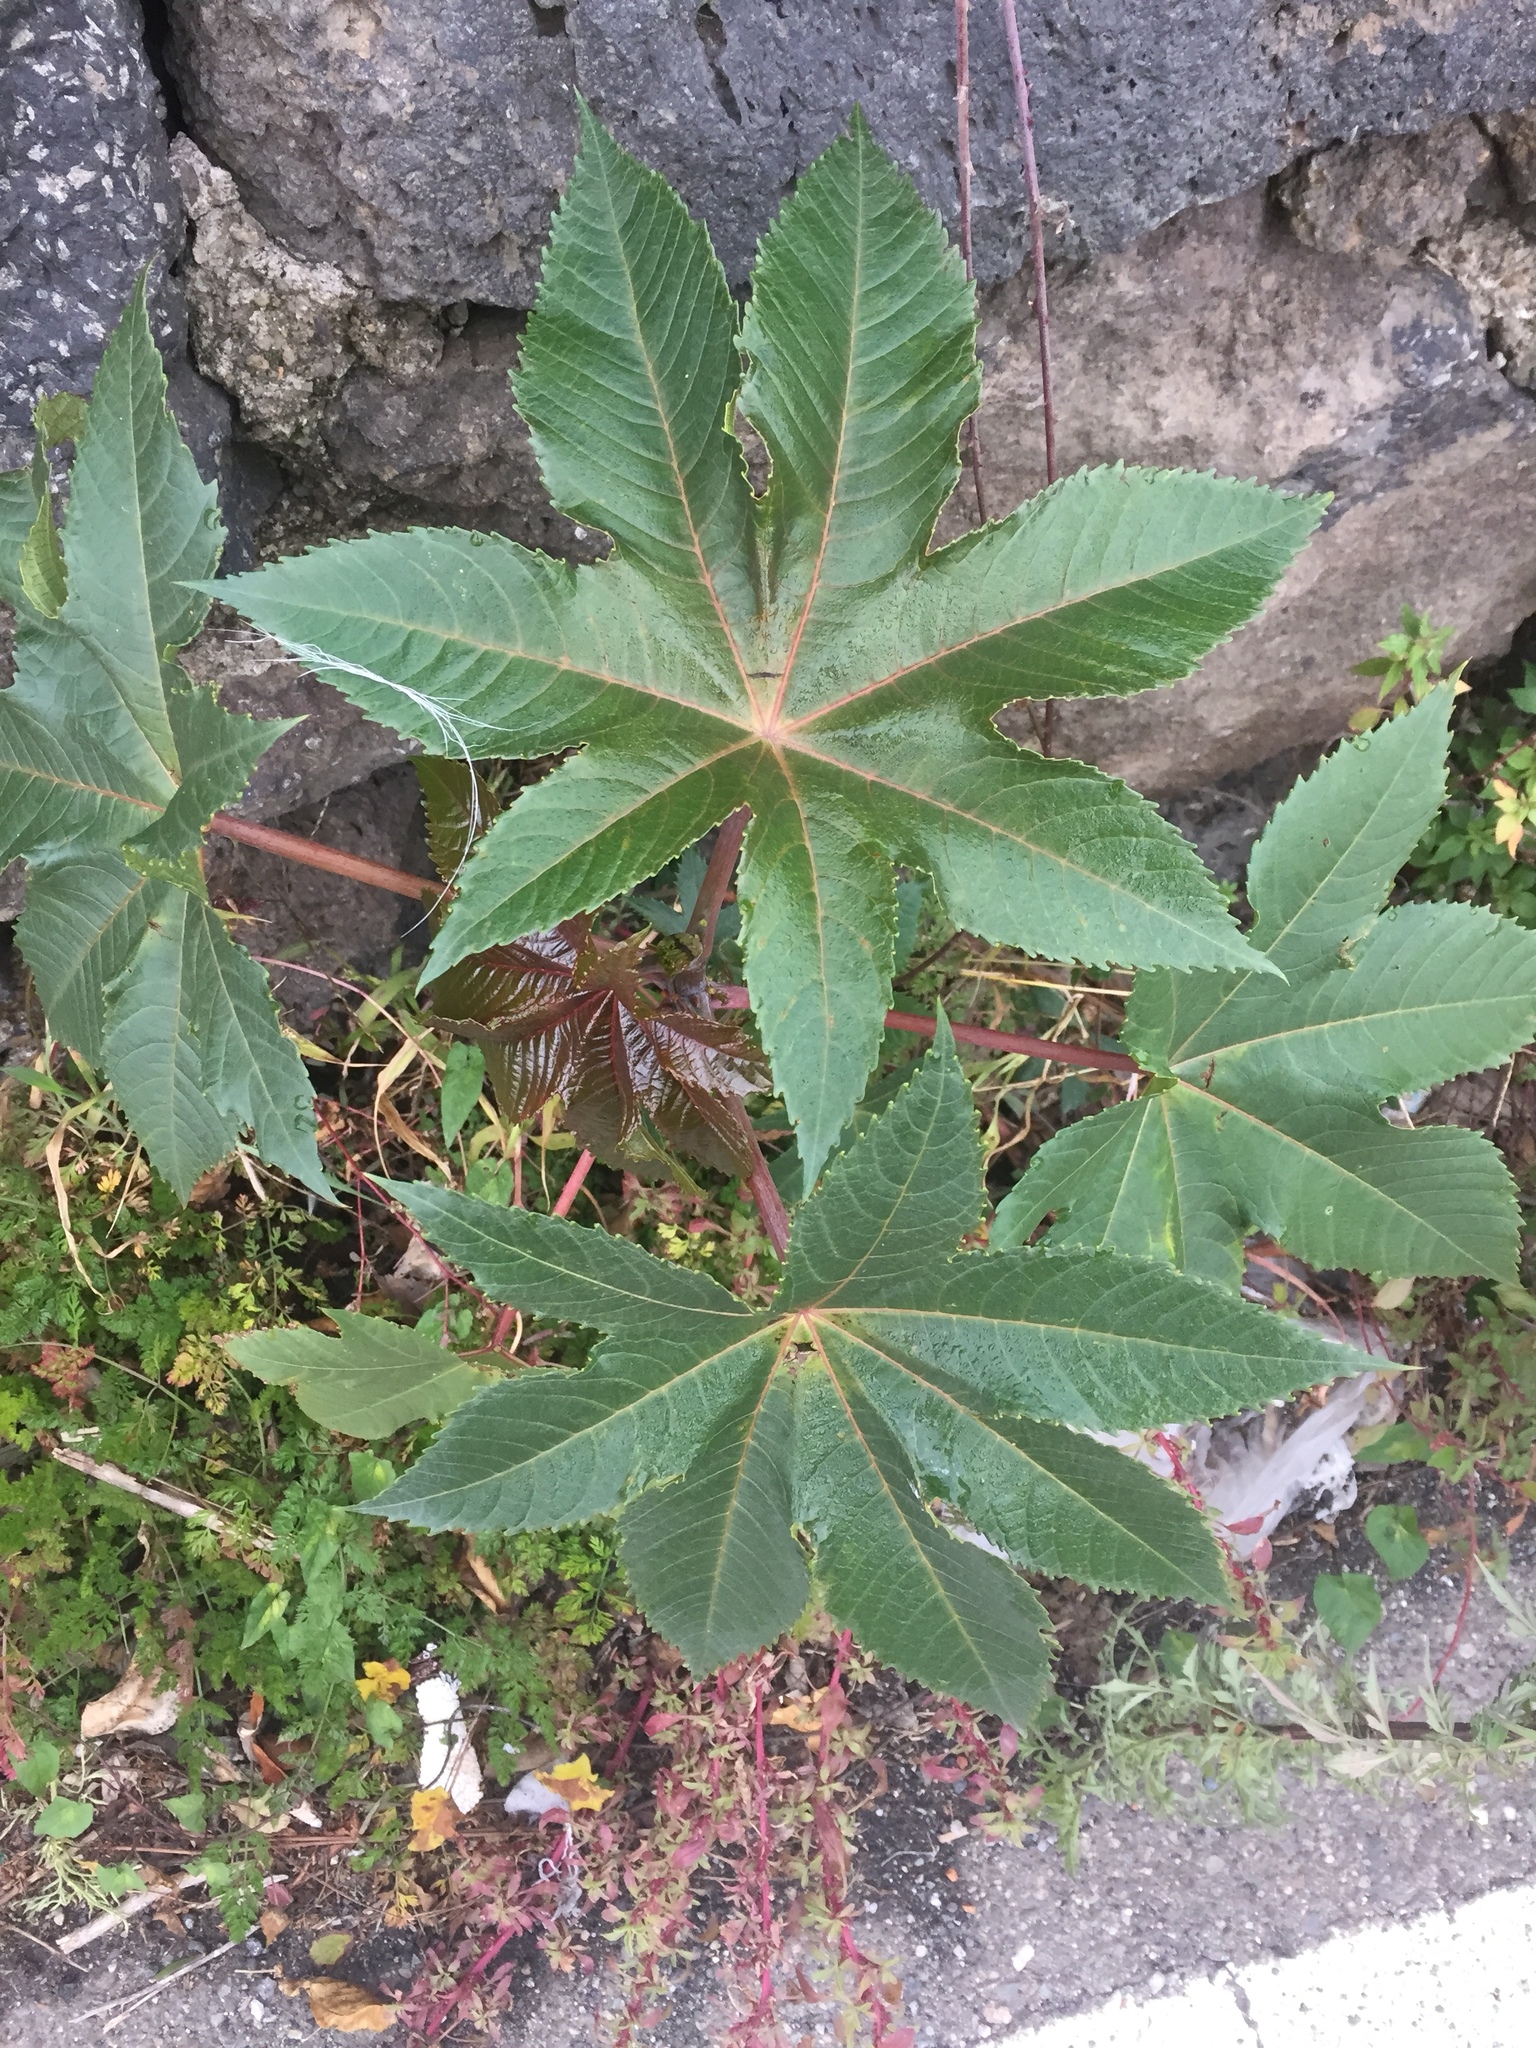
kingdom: Plantae
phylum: Tracheophyta
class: Magnoliopsida
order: Malpighiales
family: Euphorbiaceae
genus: Ricinus
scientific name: Ricinus communis
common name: Castor-oil-plant
